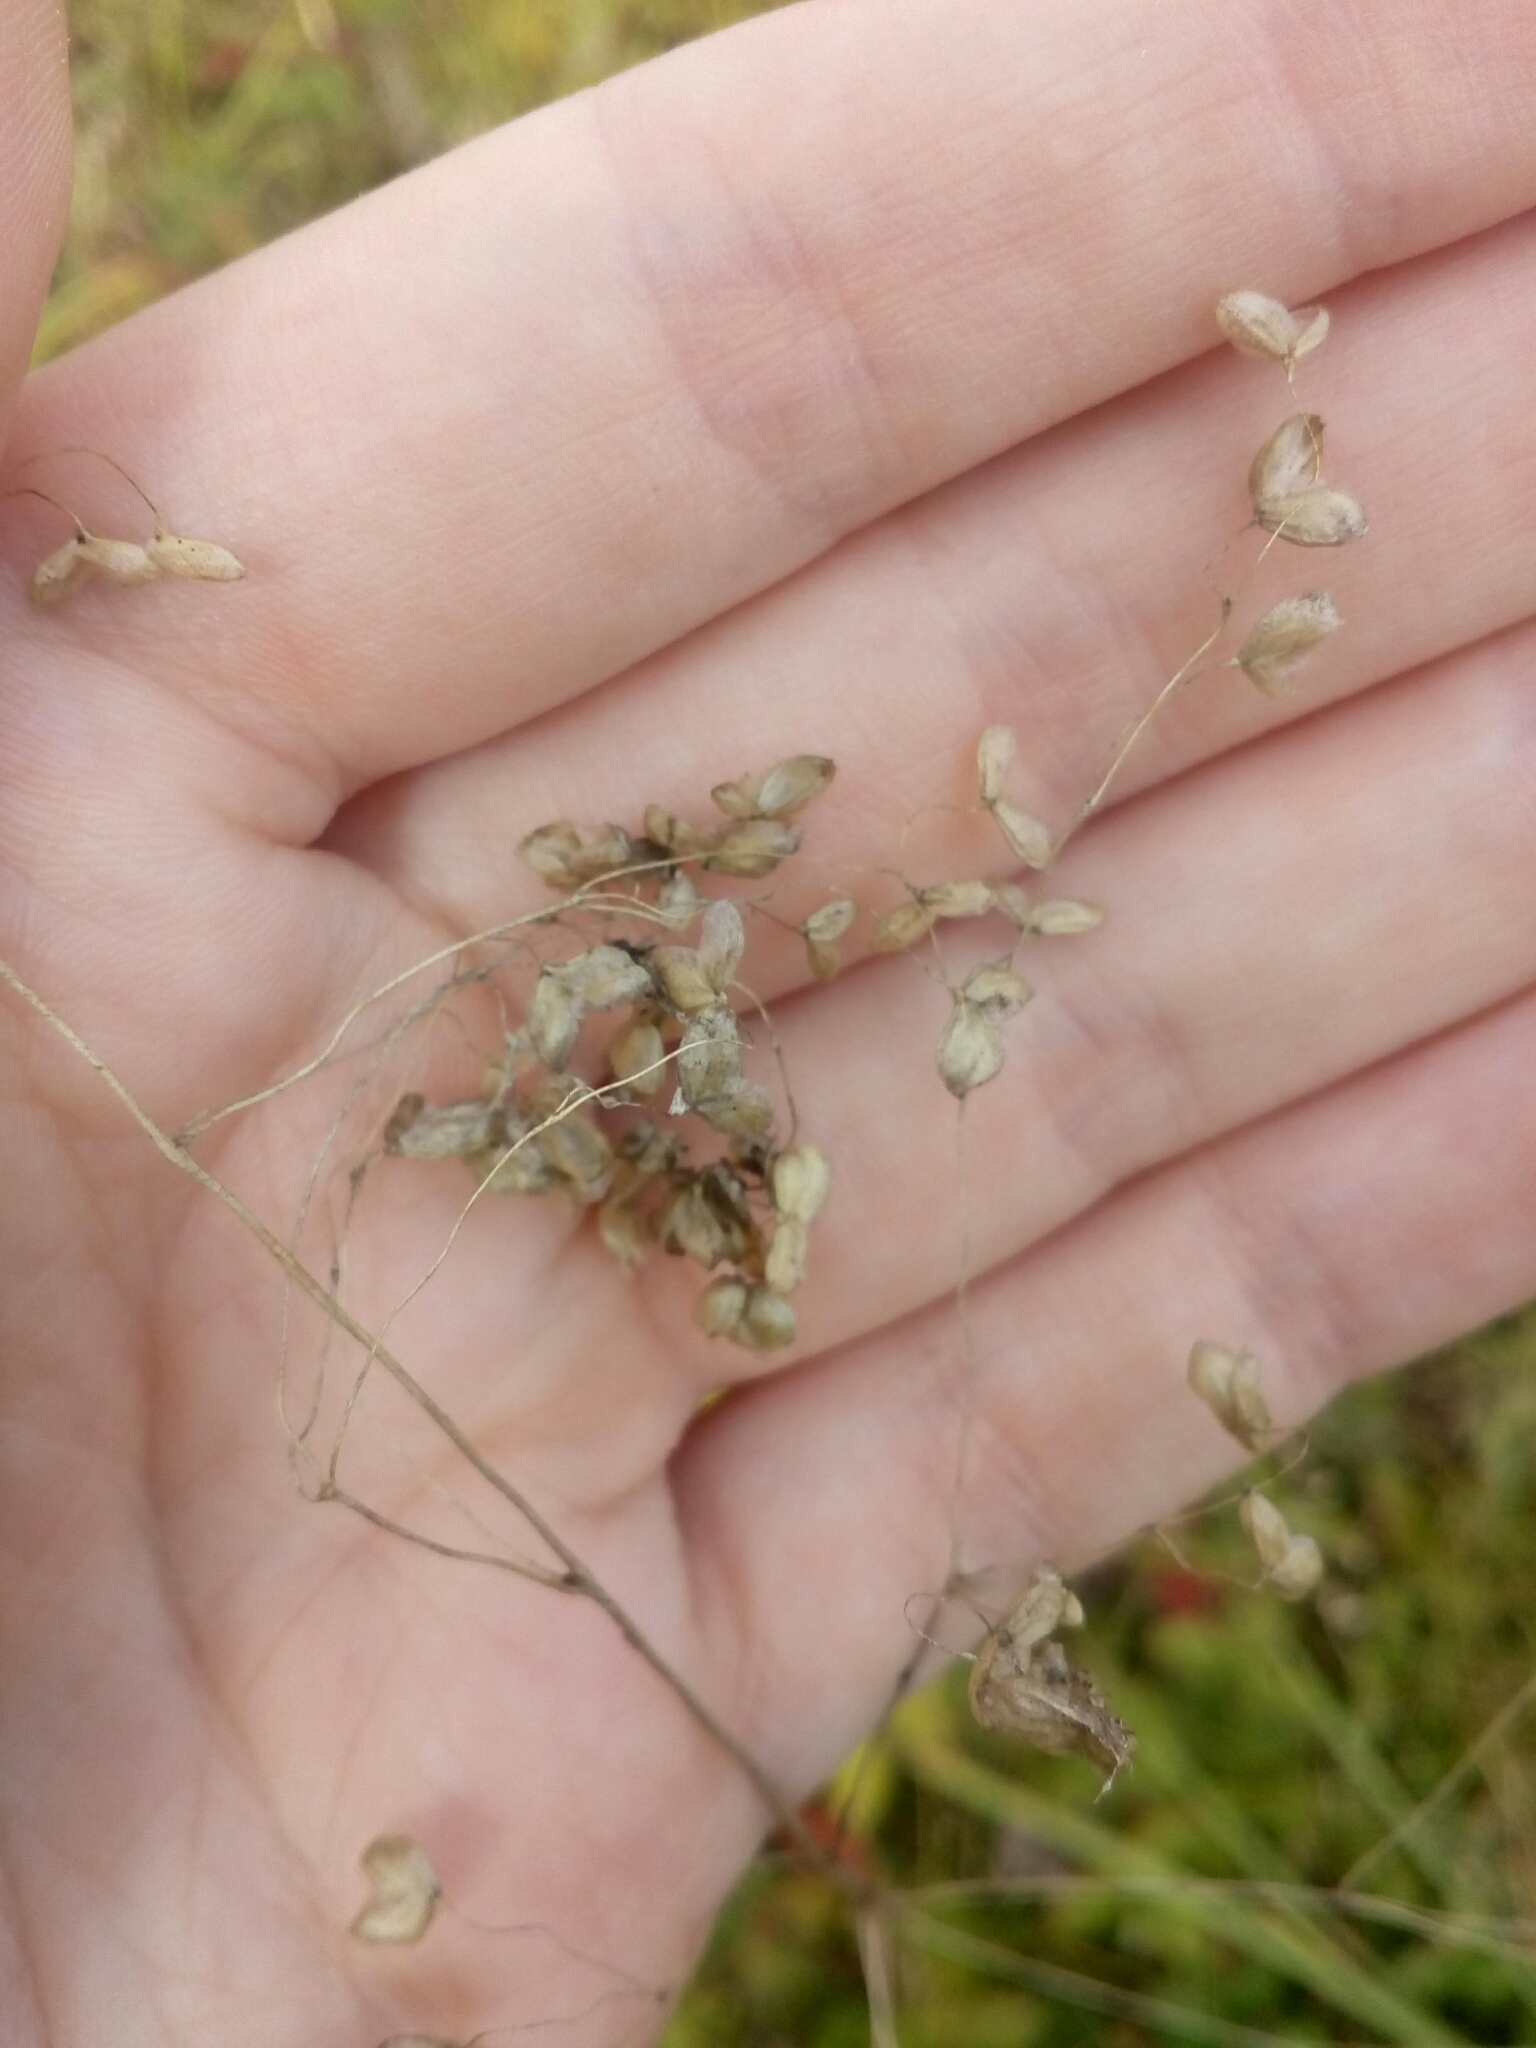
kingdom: Plantae
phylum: Tracheophyta
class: Liliopsida
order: Poales
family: Poaceae
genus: Briza
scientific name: Briza media
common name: Quaking grass
